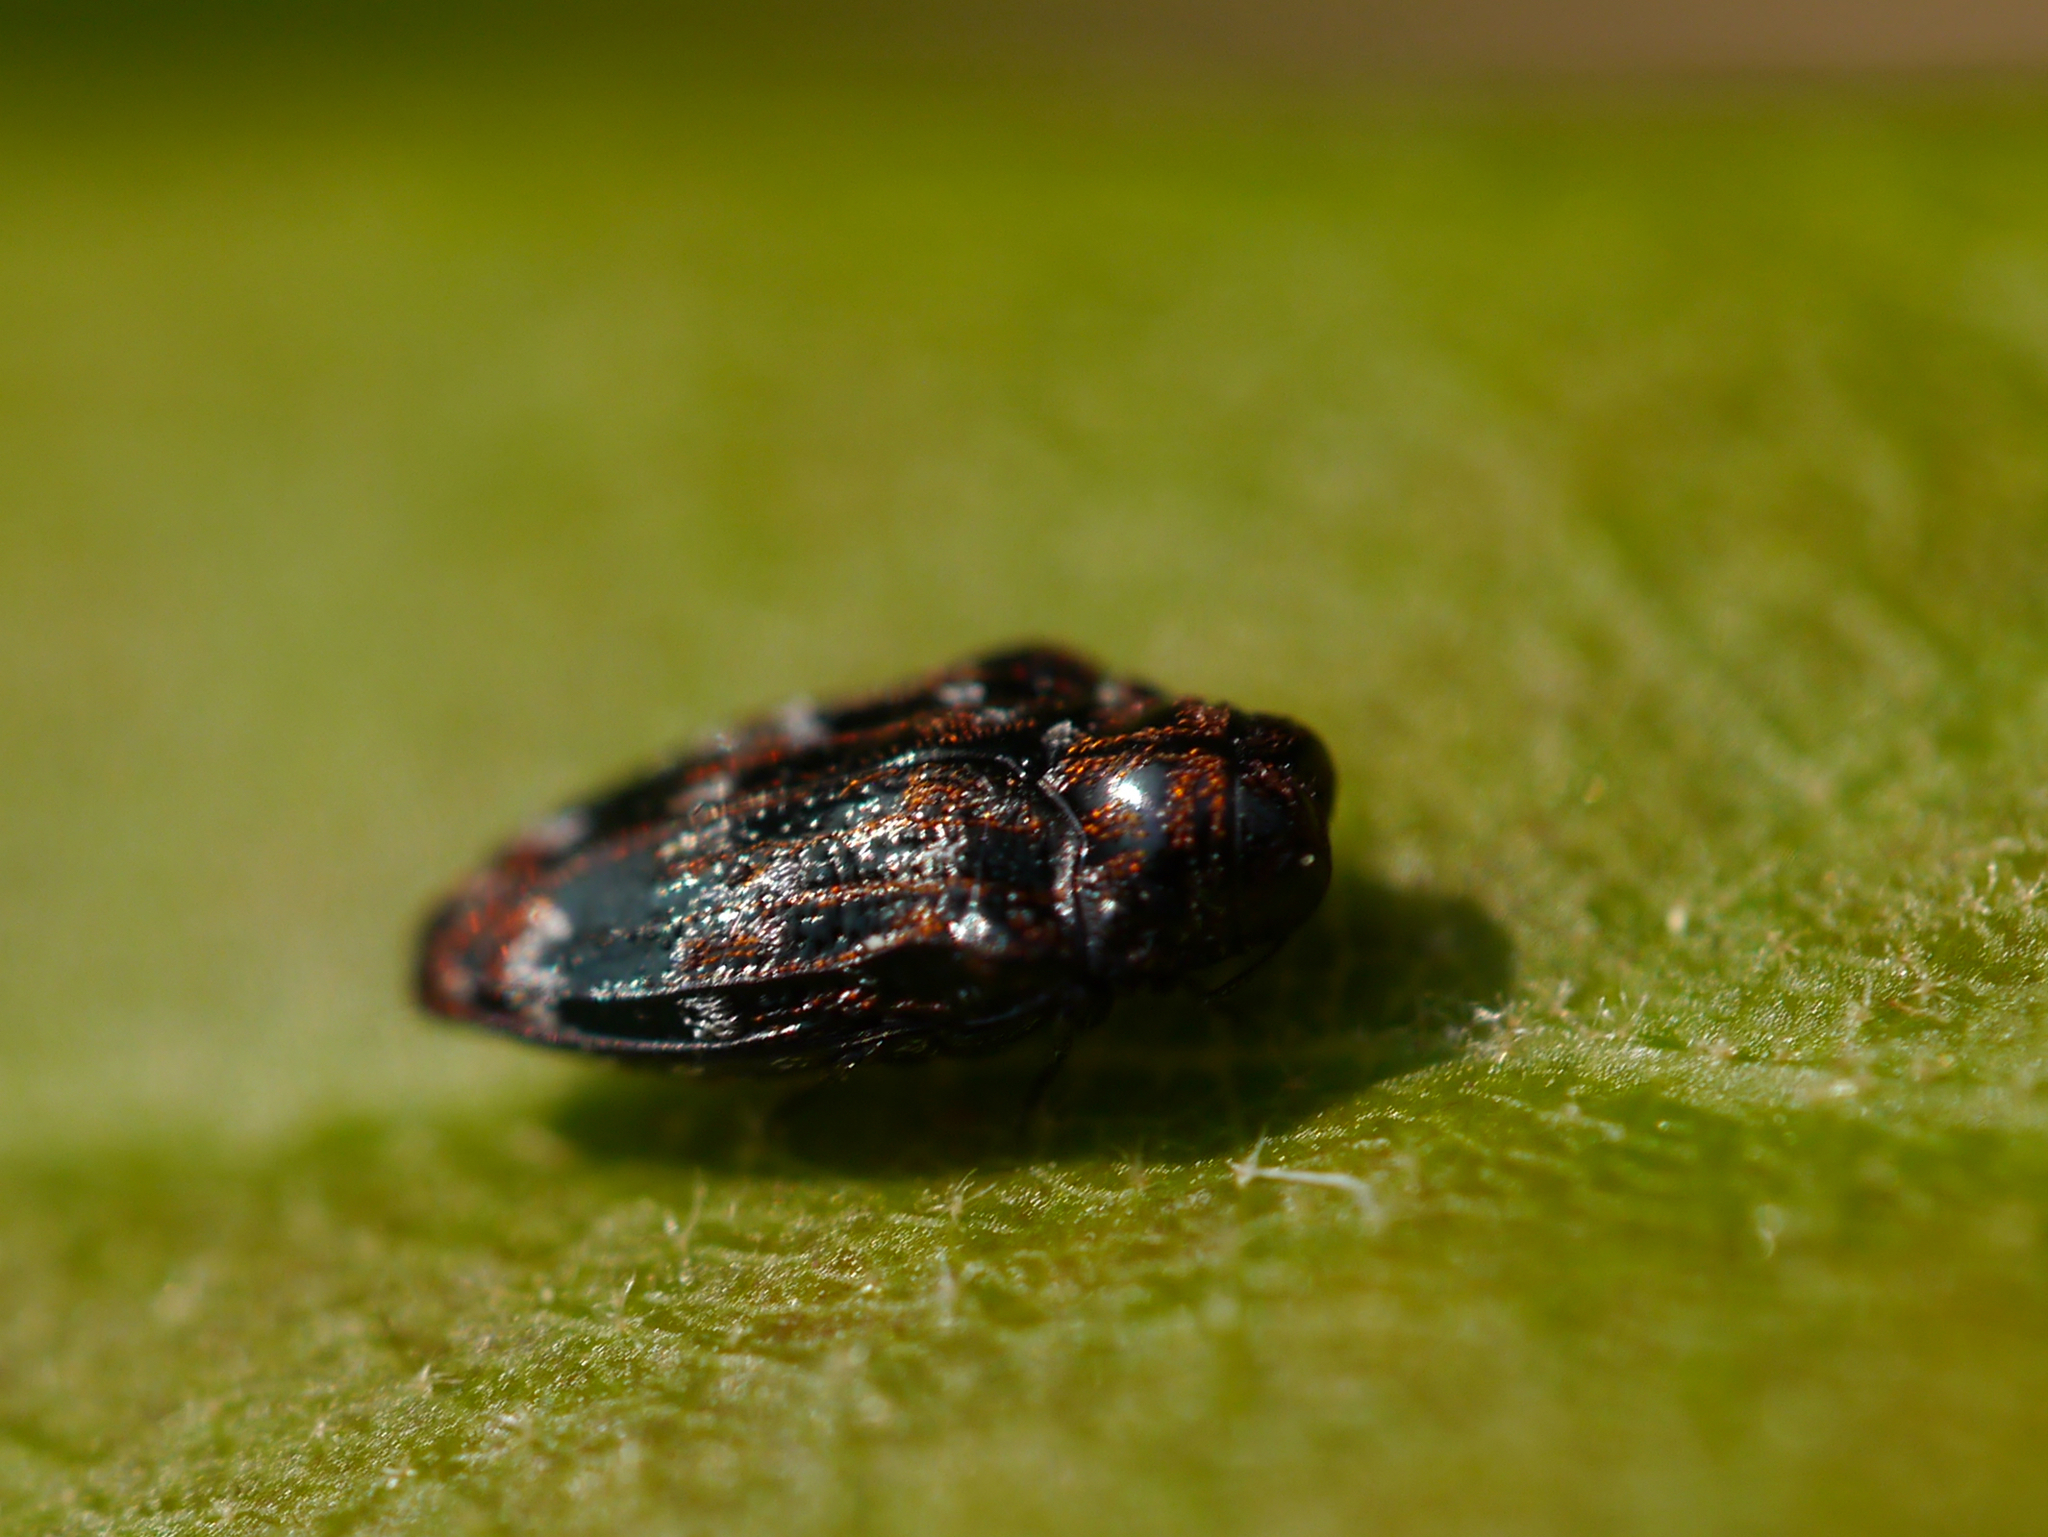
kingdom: Animalia
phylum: Arthropoda
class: Insecta
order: Coleoptera
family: Buprestidae
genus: Brachys
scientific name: Brachys ovatus
